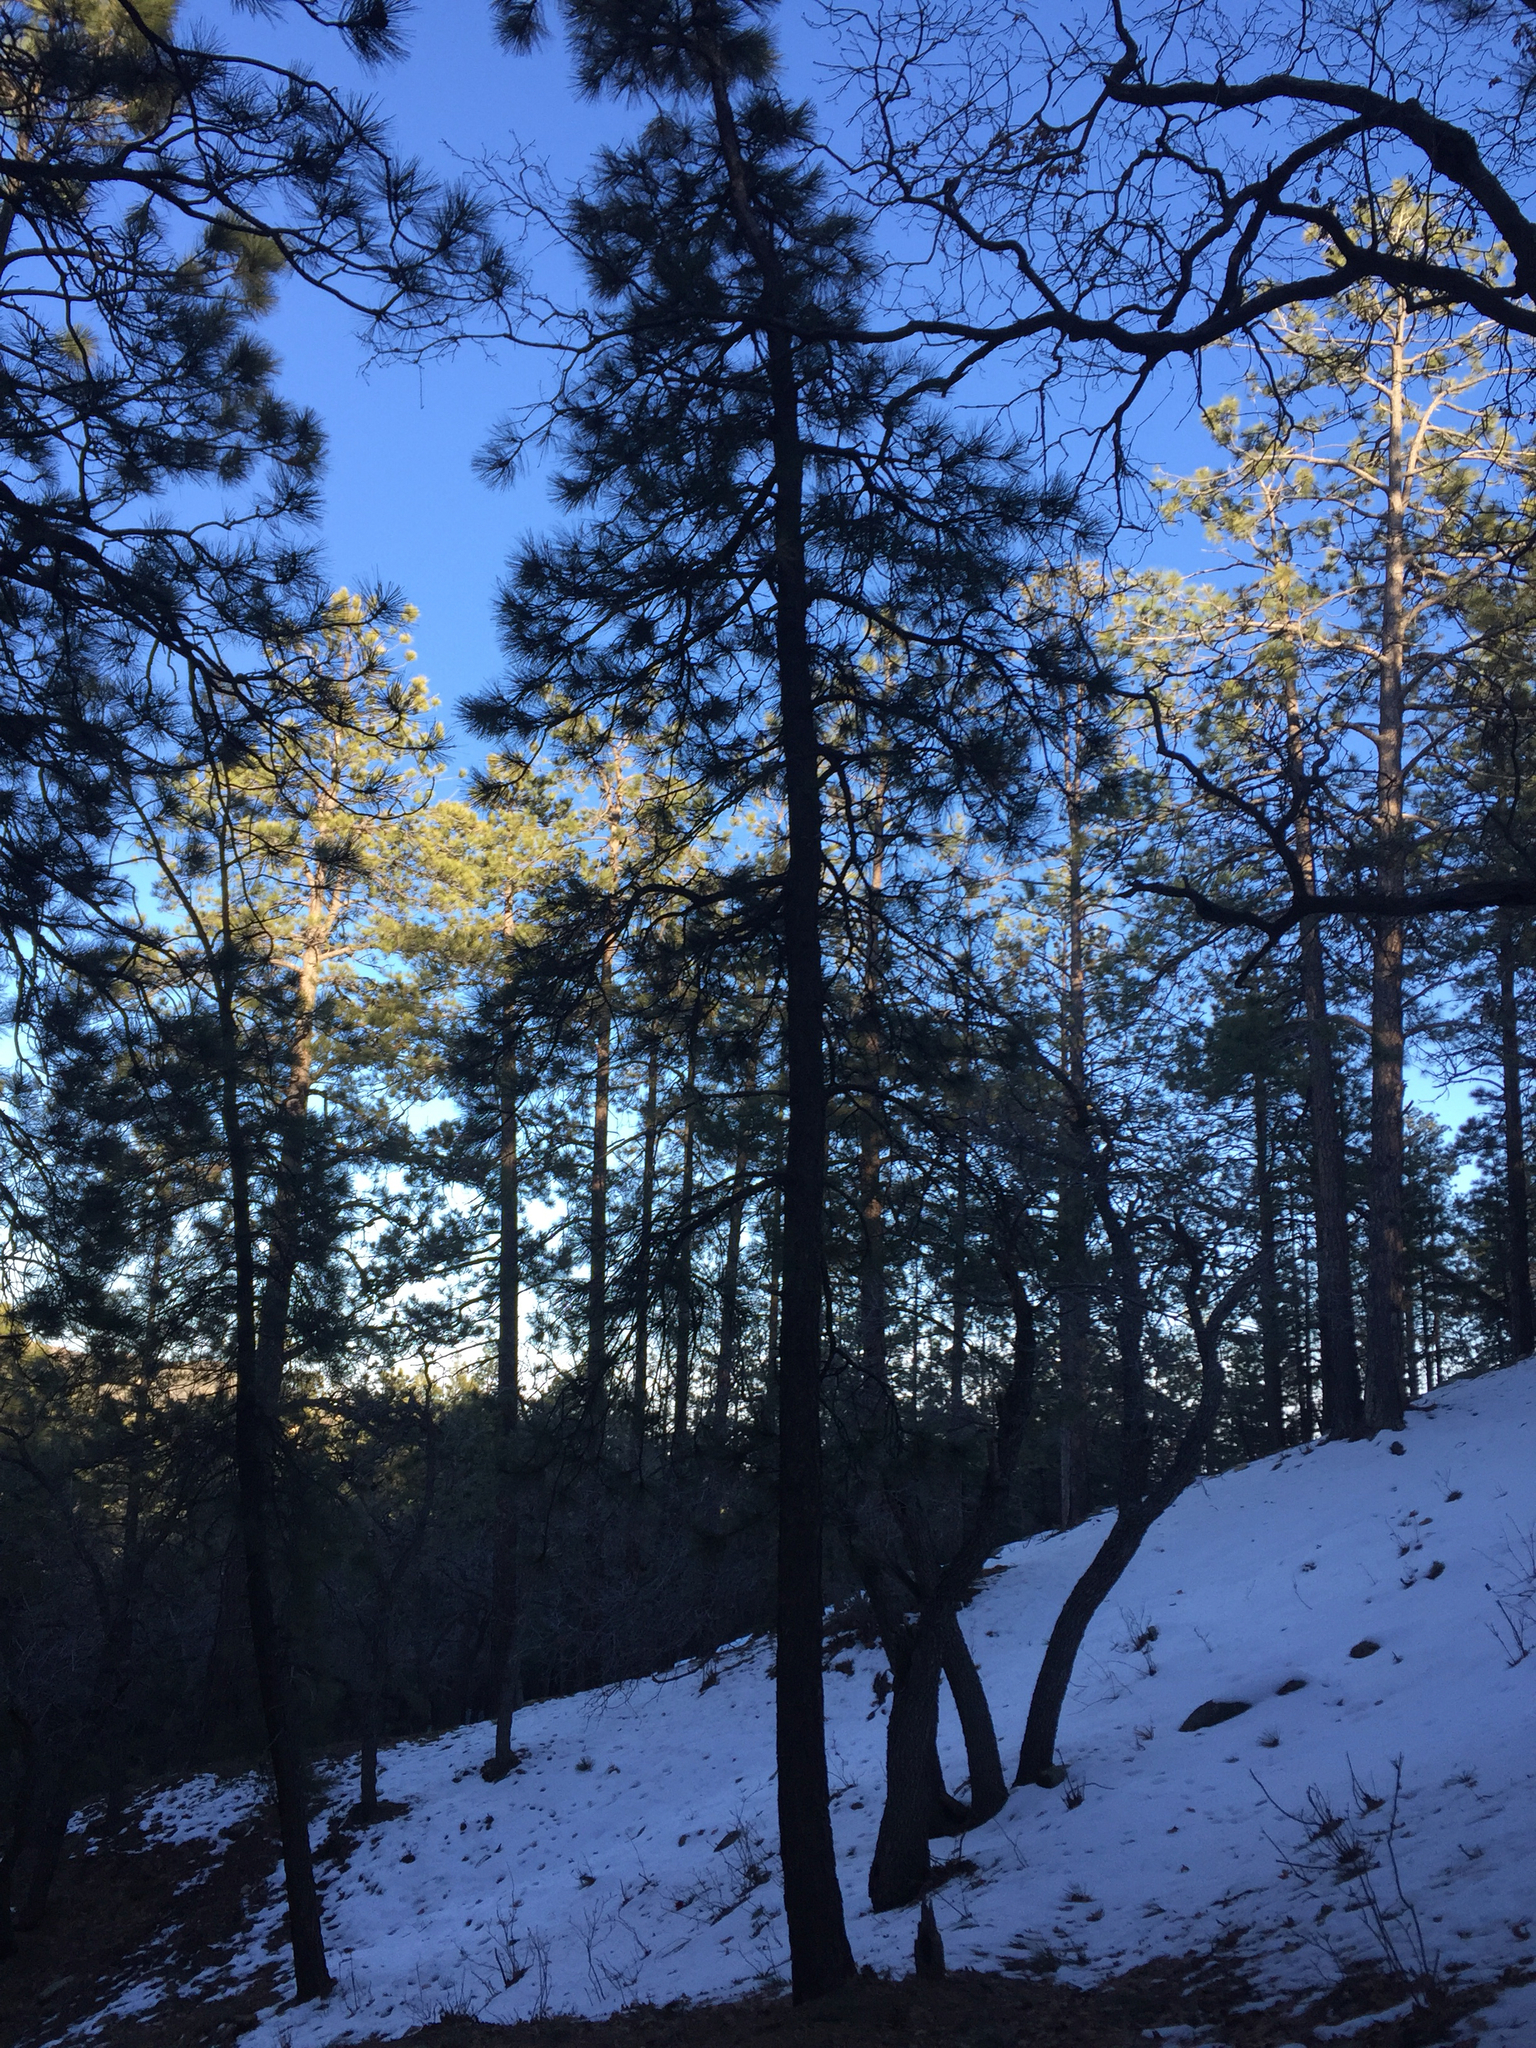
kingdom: Plantae
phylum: Tracheophyta
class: Pinopsida
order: Pinales
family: Pinaceae
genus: Pinus
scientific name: Pinus ponderosa
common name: Western yellow-pine
